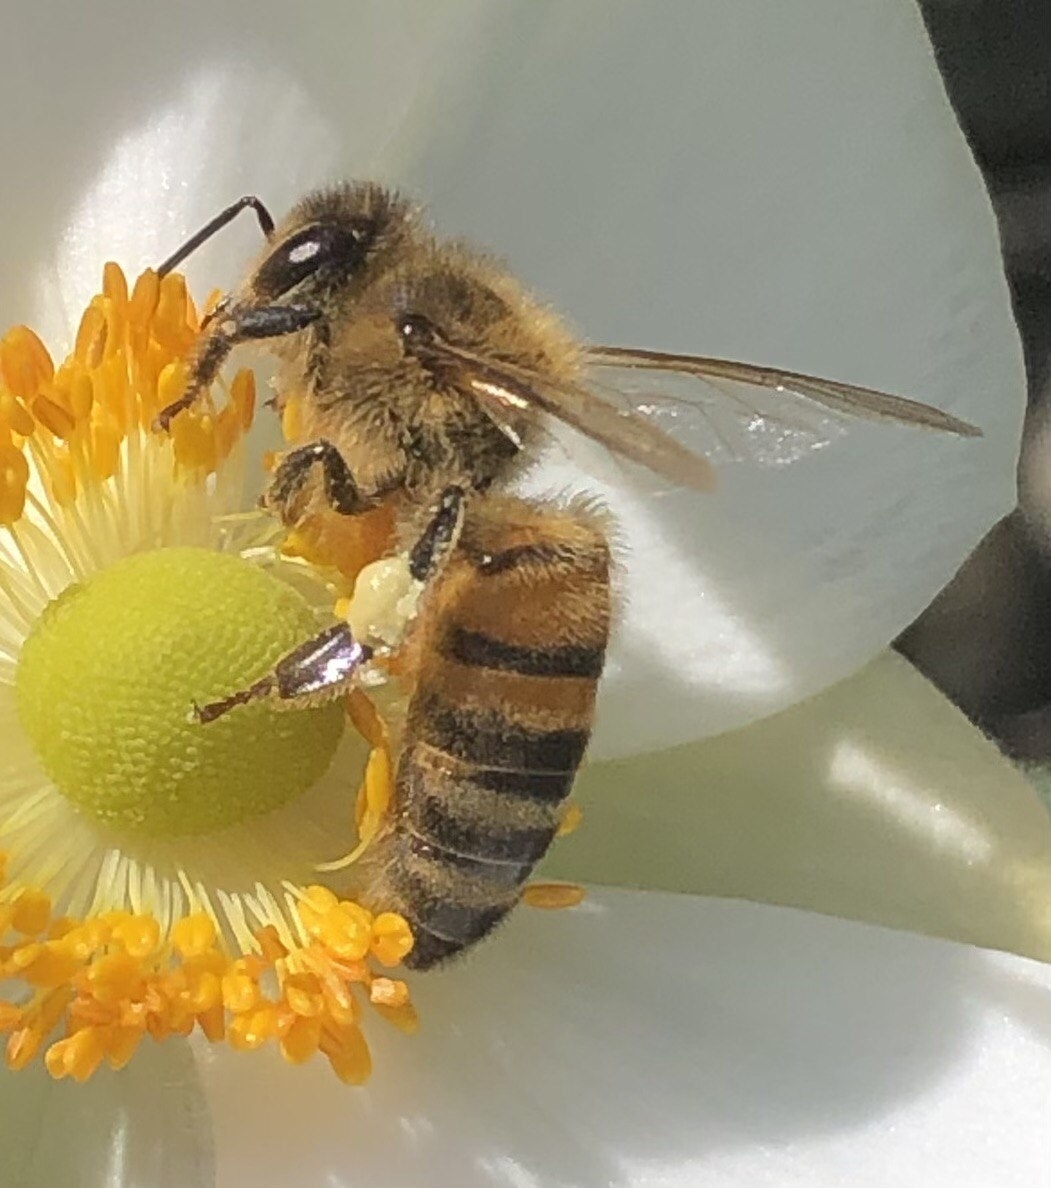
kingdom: Animalia
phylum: Arthropoda
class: Insecta
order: Hymenoptera
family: Apidae
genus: Apis
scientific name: Apis mellifera
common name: Honey bee
